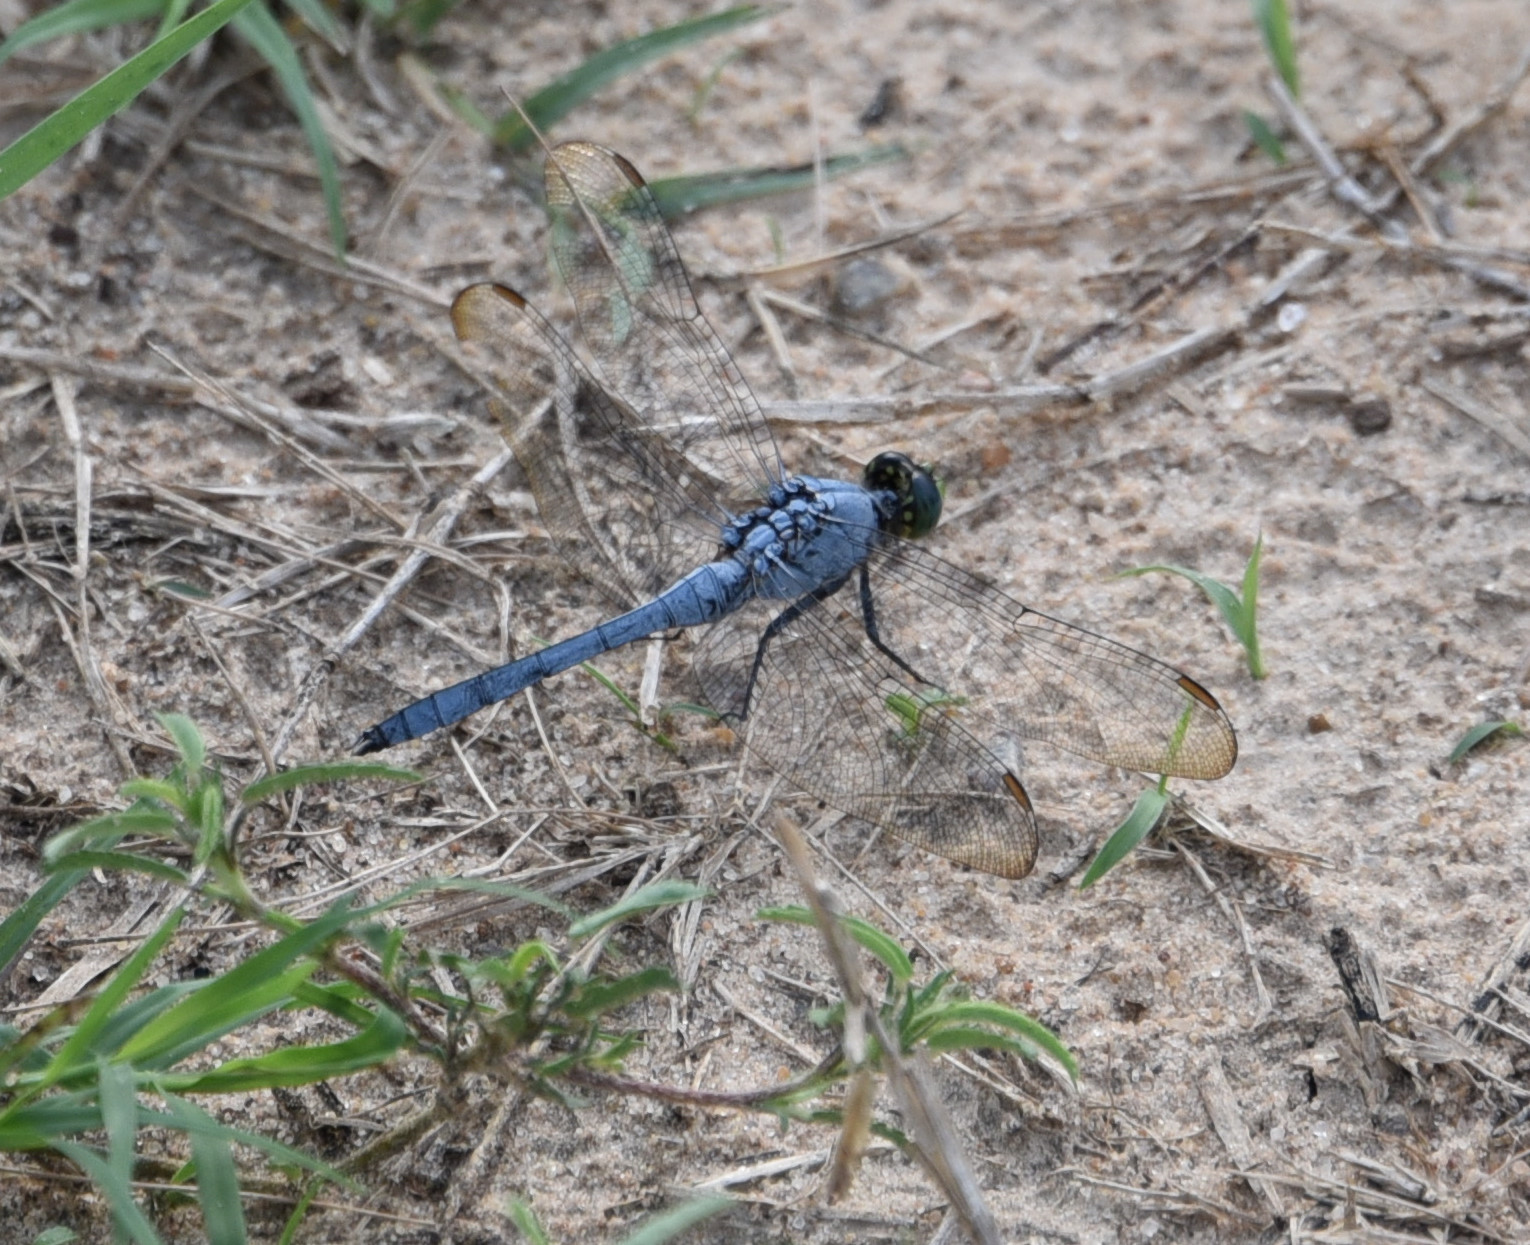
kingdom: Animalia
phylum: Arthropoda
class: Insecta
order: Odonata
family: Libellulidae
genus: Erythemis
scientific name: Erythemis simplicicollis
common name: Eastern pondhawk
